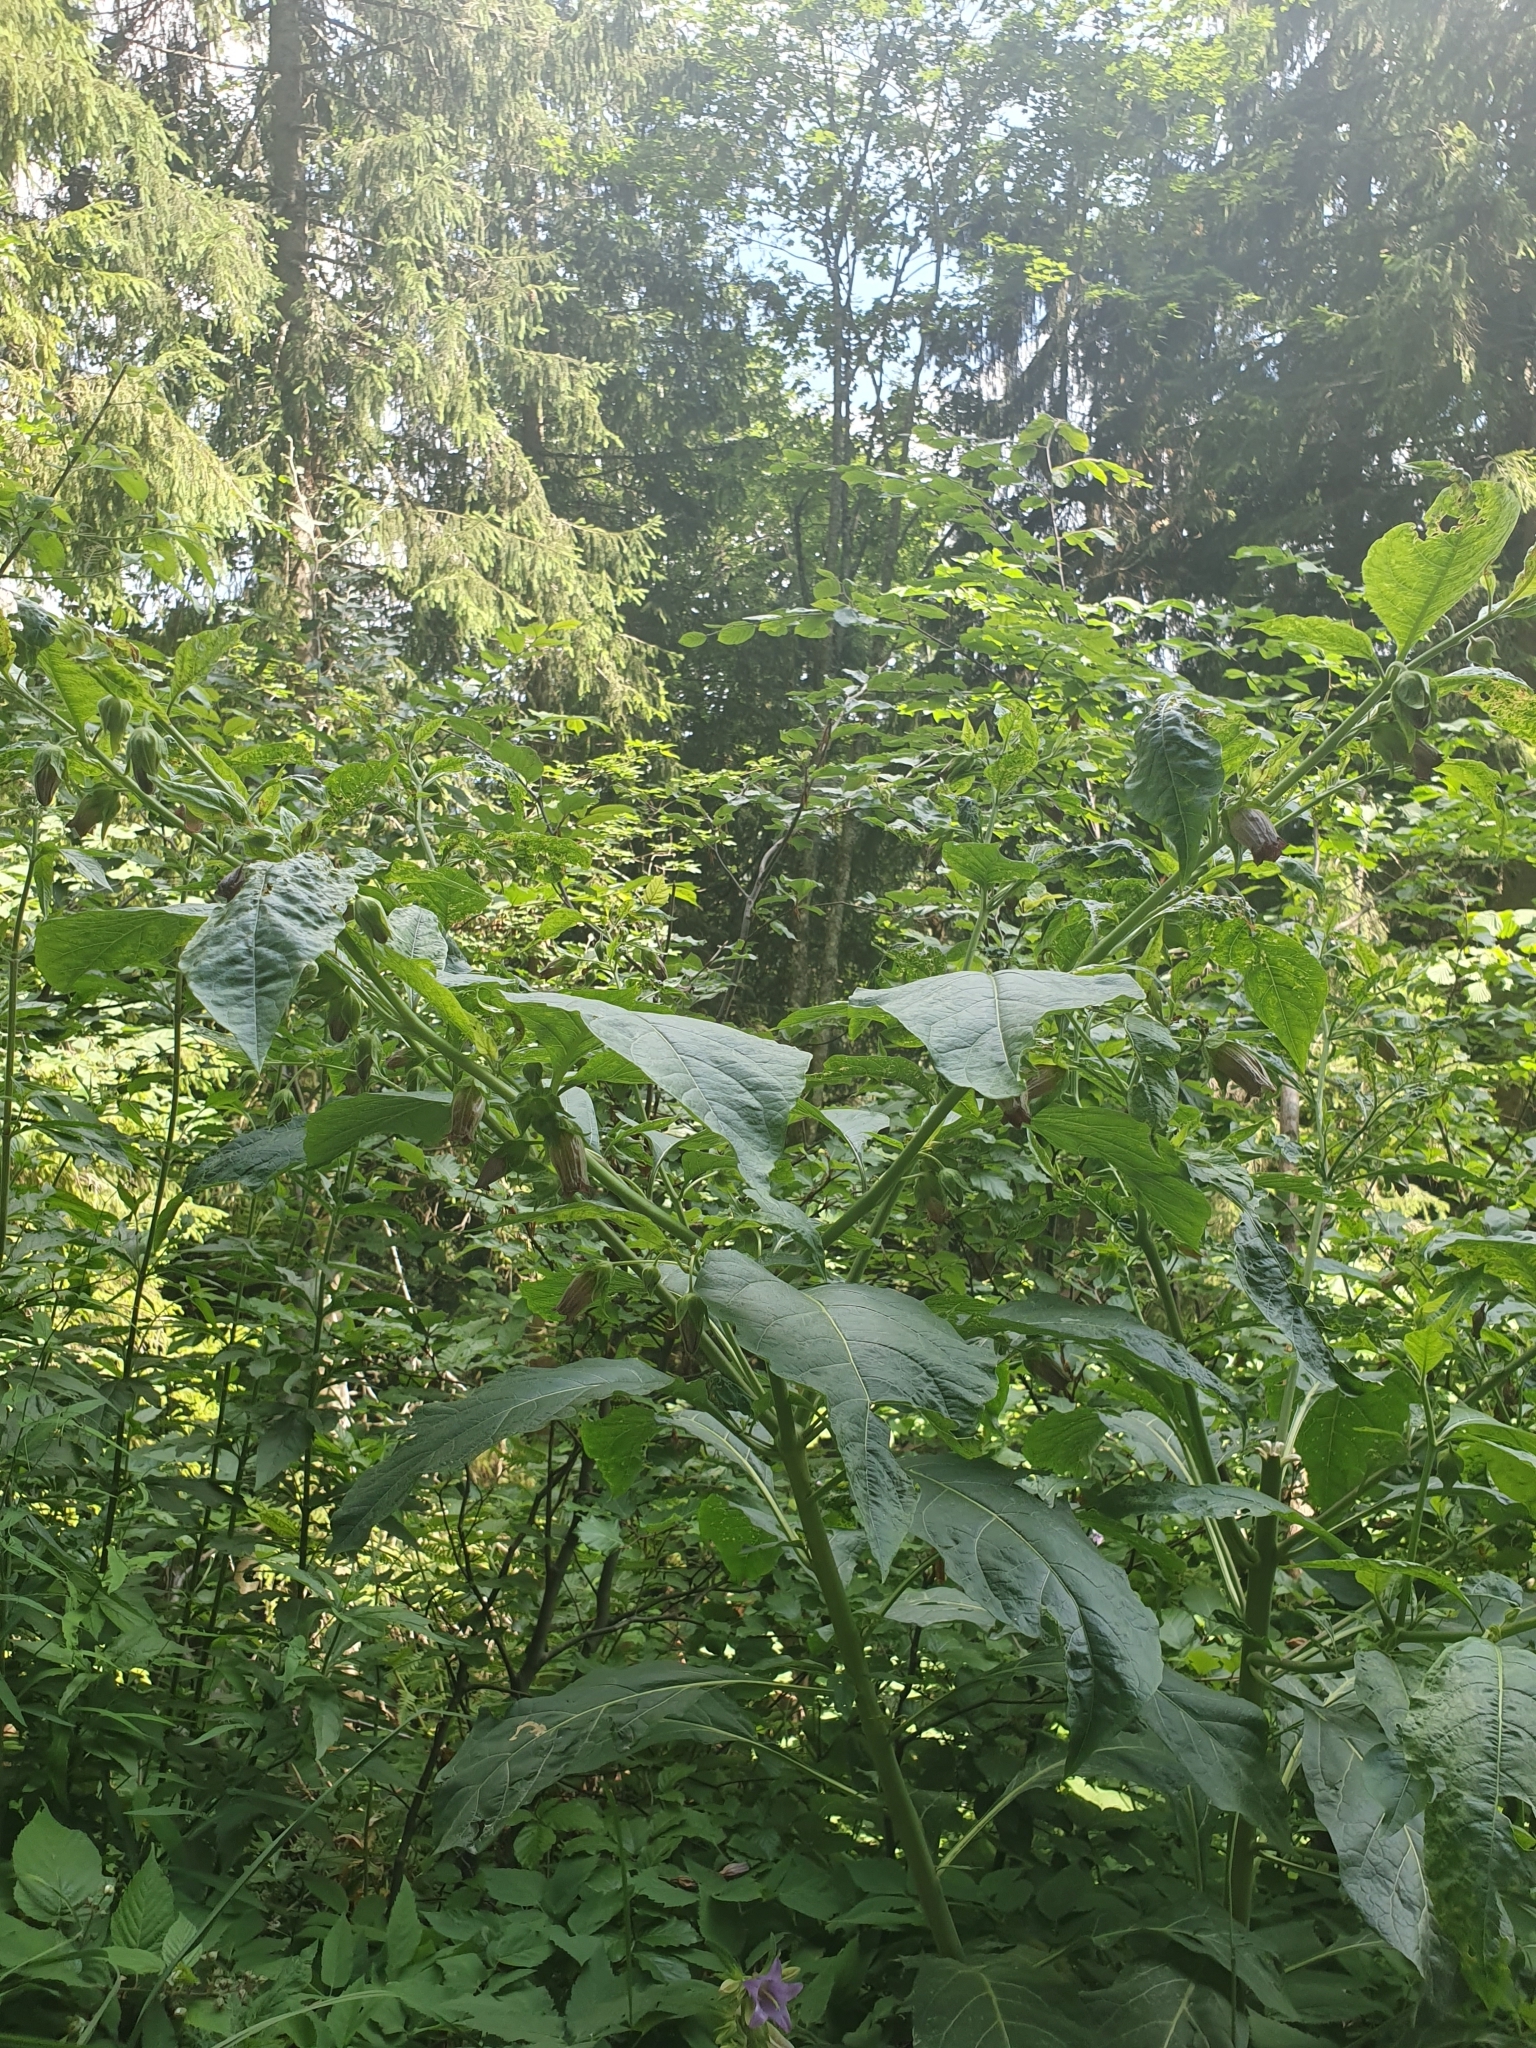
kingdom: Plantae
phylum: Tracheophyta
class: Magnoliopsida
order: Solanales
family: Solanaceae
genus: Atropa
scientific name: Atropa belladonna
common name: Deadly nightshade
